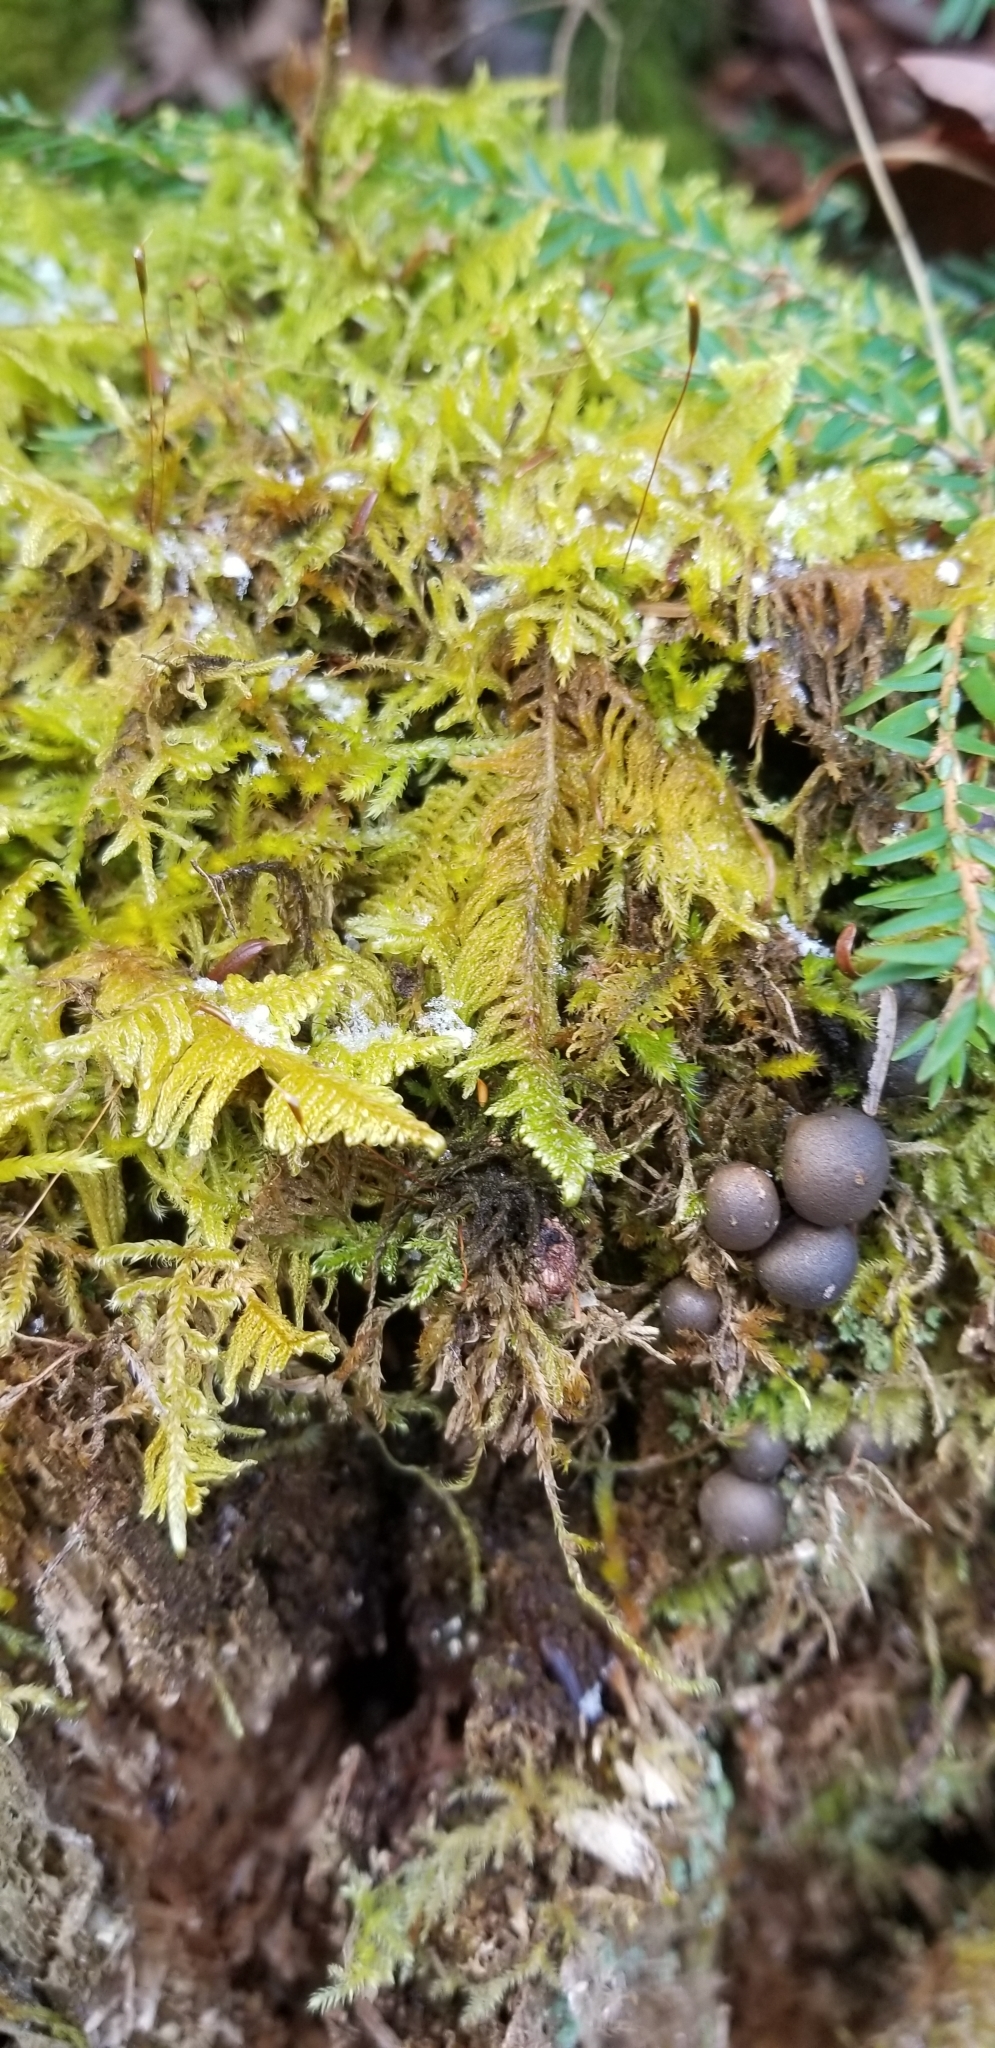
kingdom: Plantae
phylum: Bryophyta
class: Bryopsida
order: Hypnales
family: Pylaisiaceae
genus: Ptilium
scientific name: Ptilium crista-castrensis
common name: Knight's plume moss
